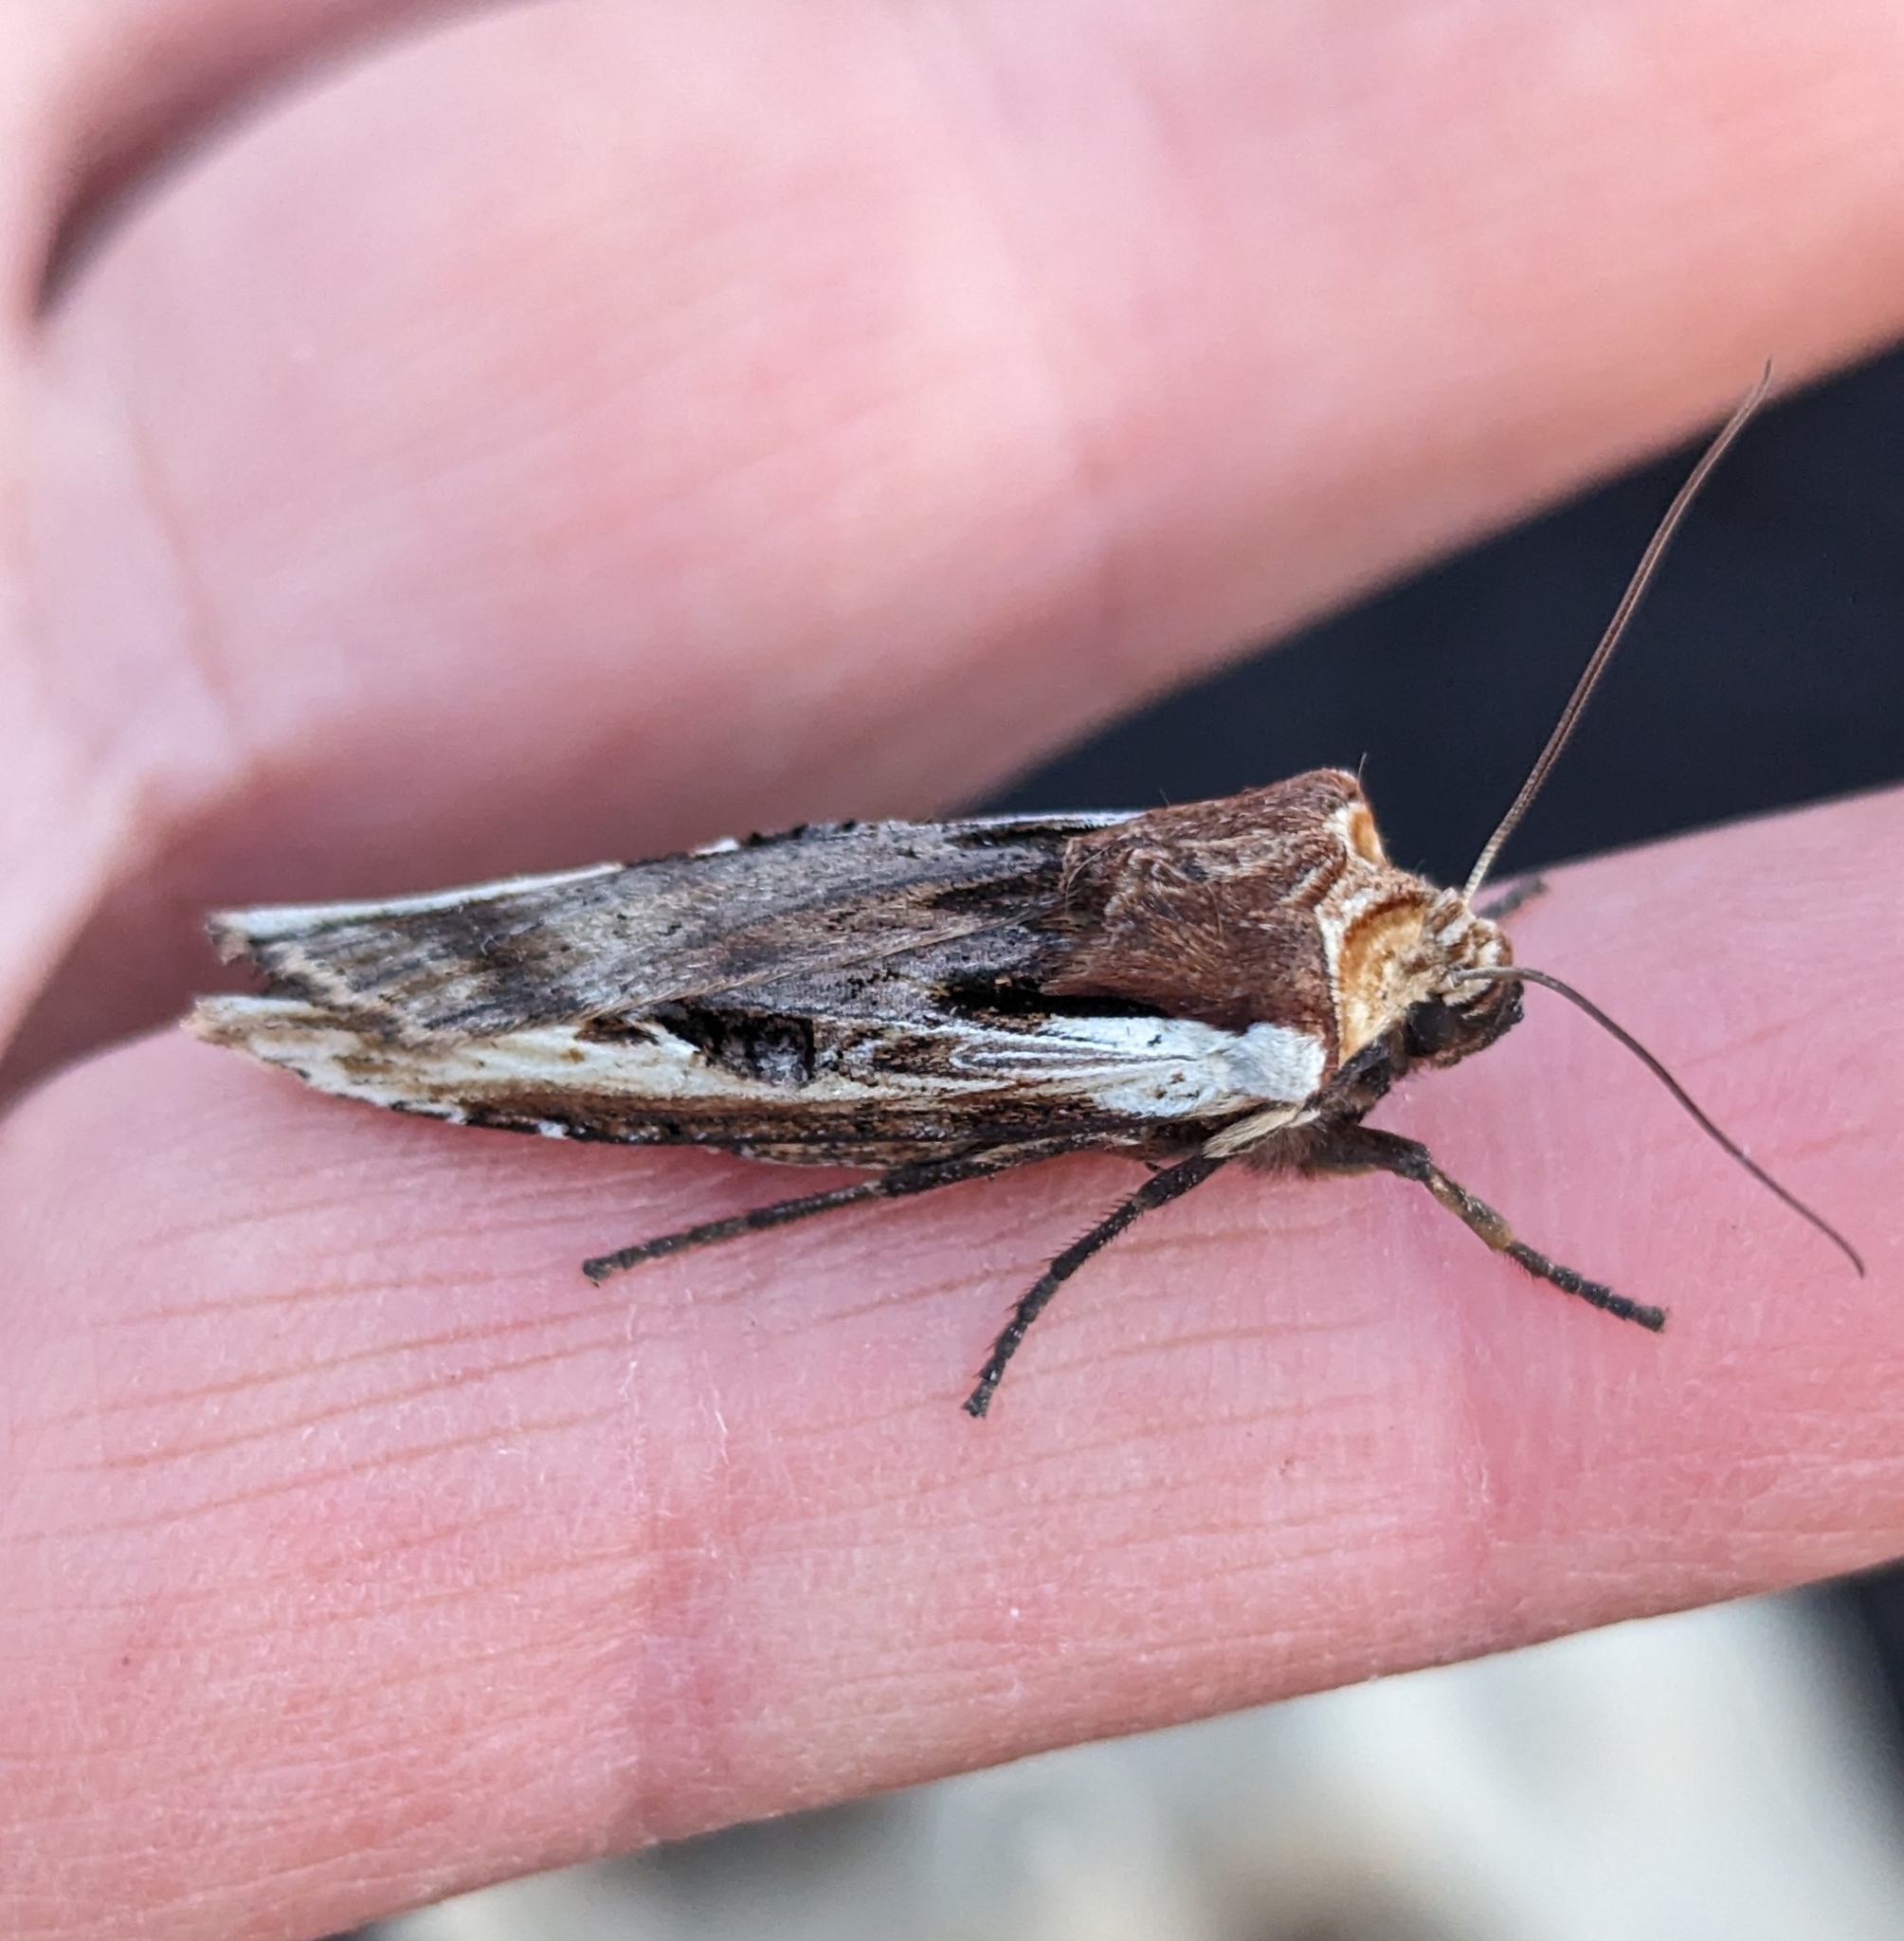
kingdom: Animalia
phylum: Arthropoda
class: Insecta
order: Lepidoptera
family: Noctuidae
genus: Xylena
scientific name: Xylena curvimacula
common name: Dot-and-dash swordgrass moth
